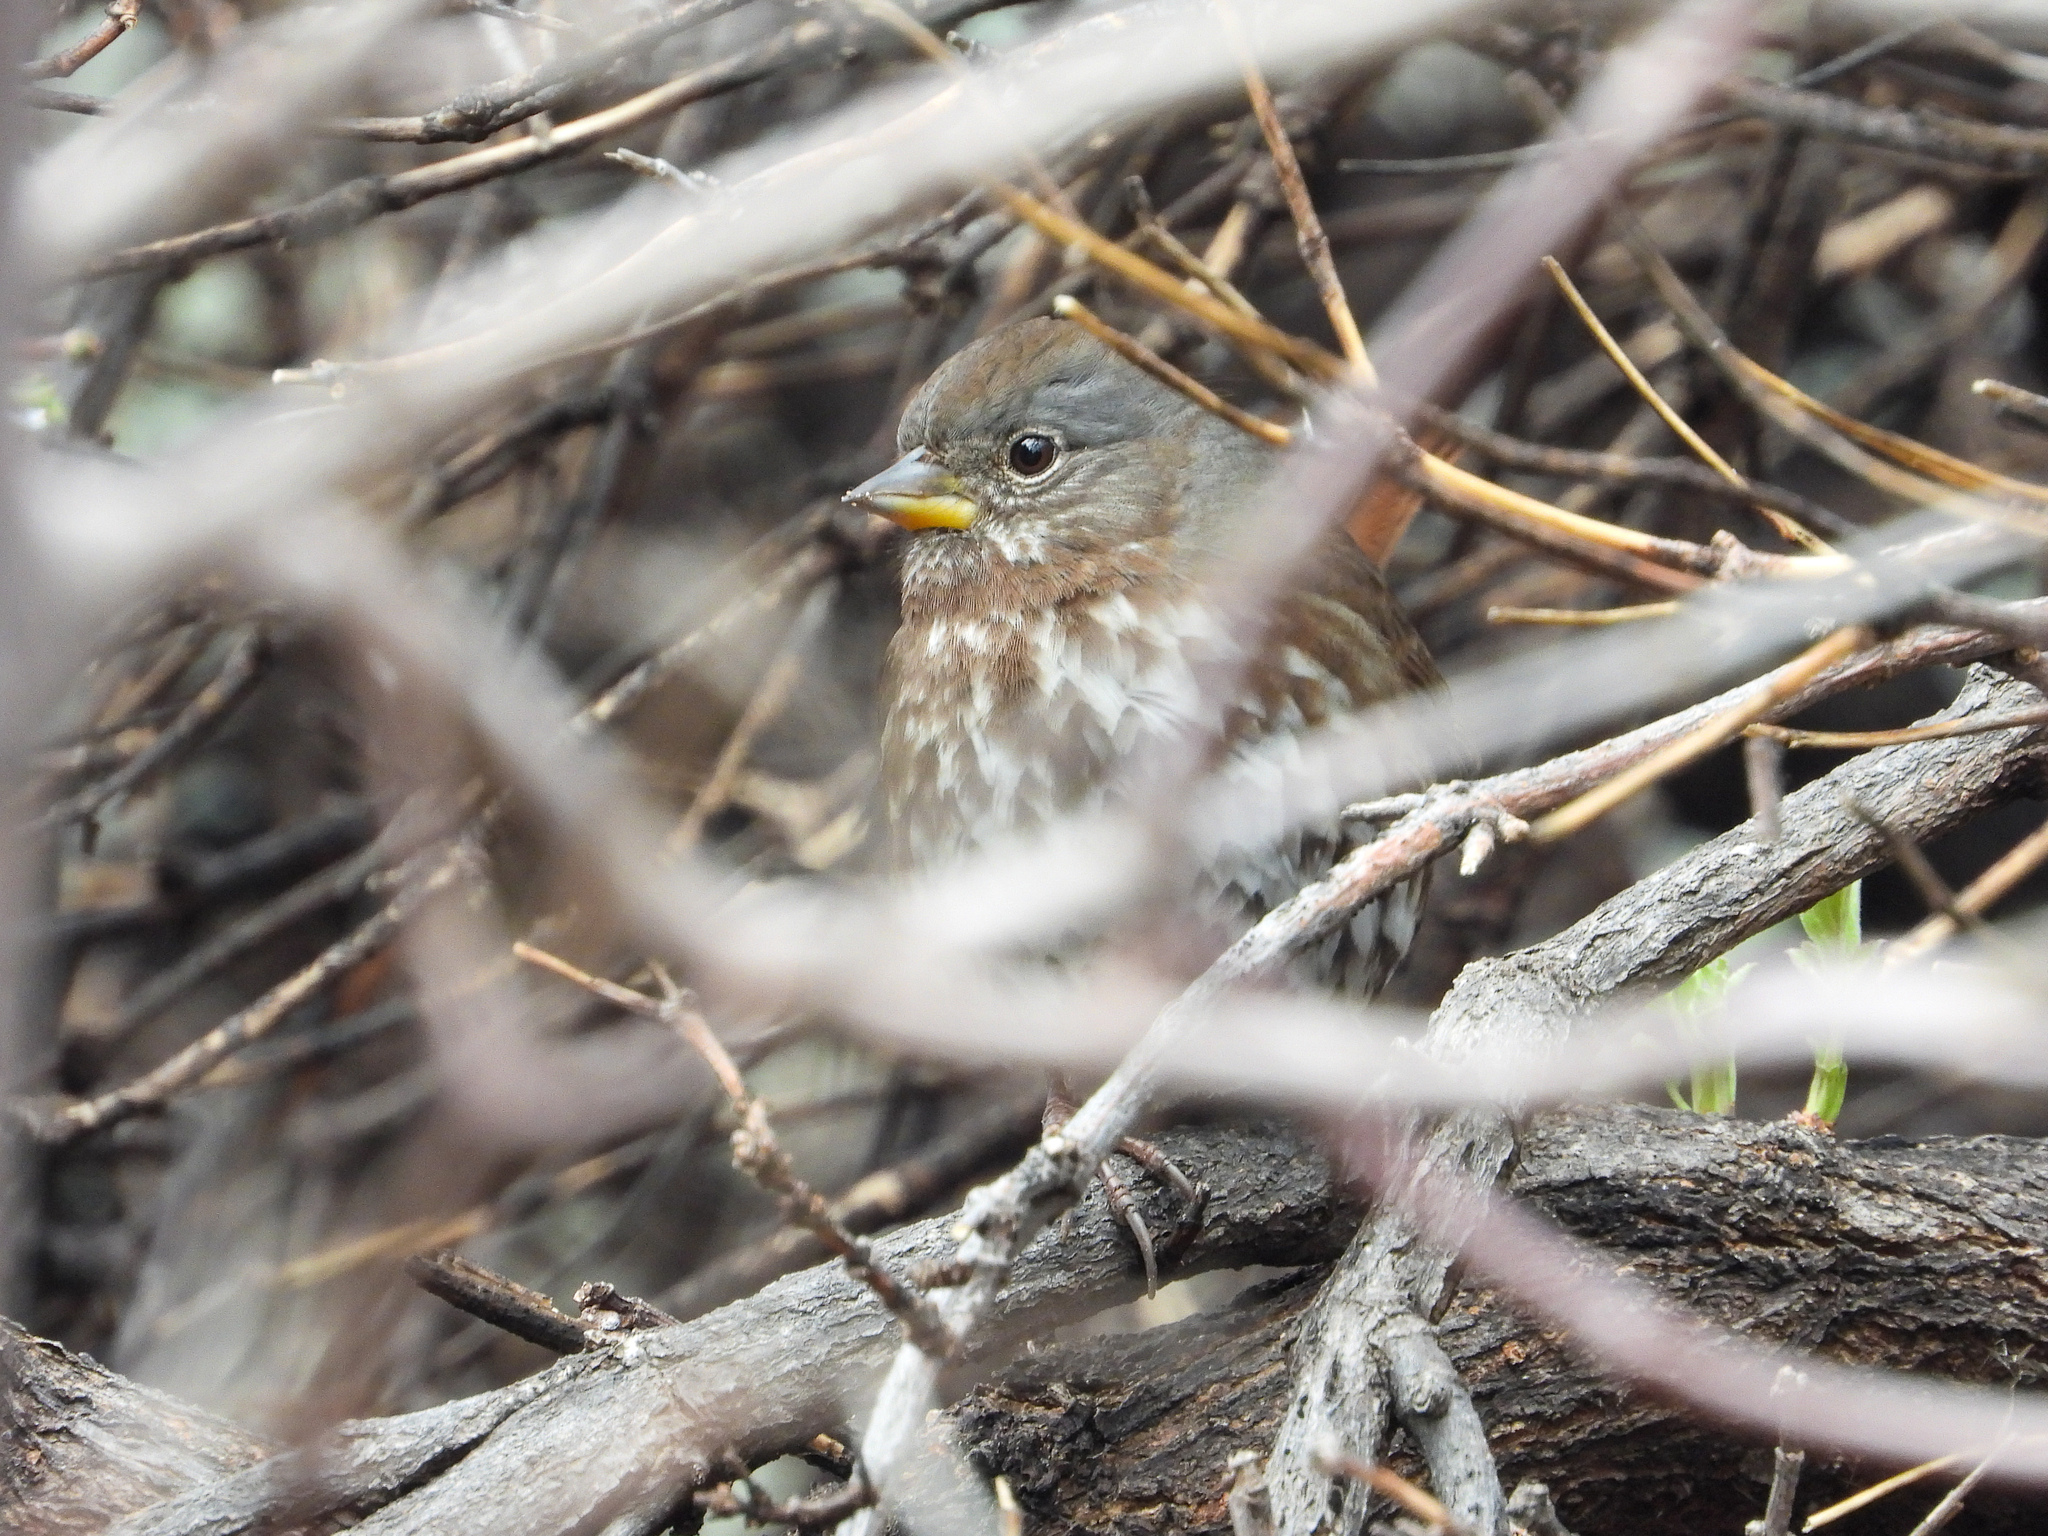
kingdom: Animalia
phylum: Chordata
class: Aves
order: Passeriformes
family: Passerellidae
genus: Passerella
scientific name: Passerella iliaca
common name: Fox sparrow
